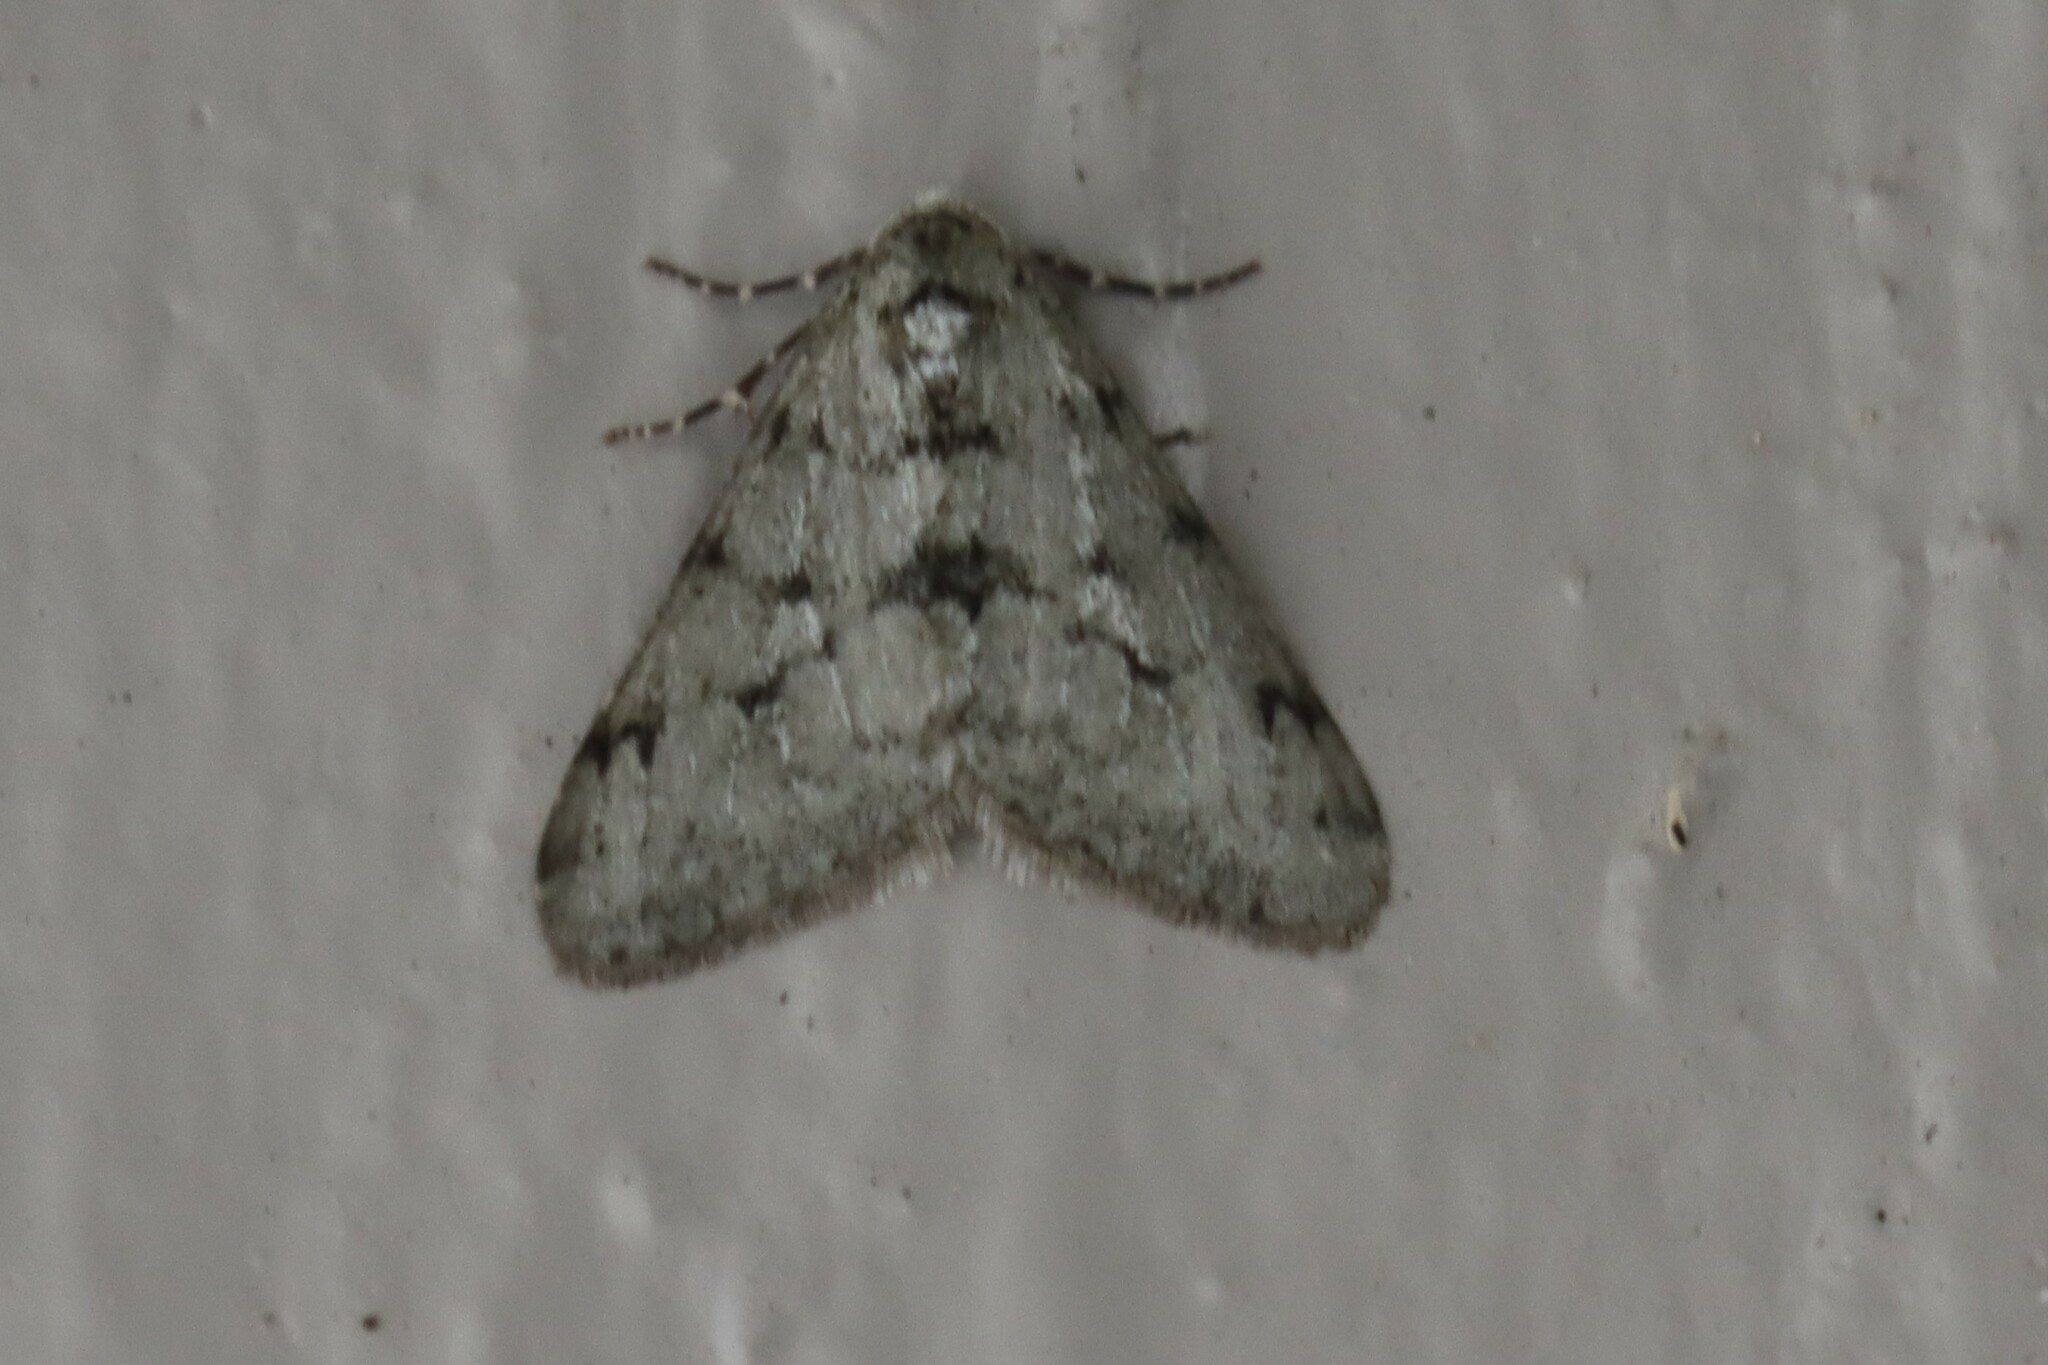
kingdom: Animalia
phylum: Arthropoda
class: Insecta
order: Lepidoptera
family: Geometridae
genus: Phigalia
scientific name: Phigalia strigataria
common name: Small phigalia
